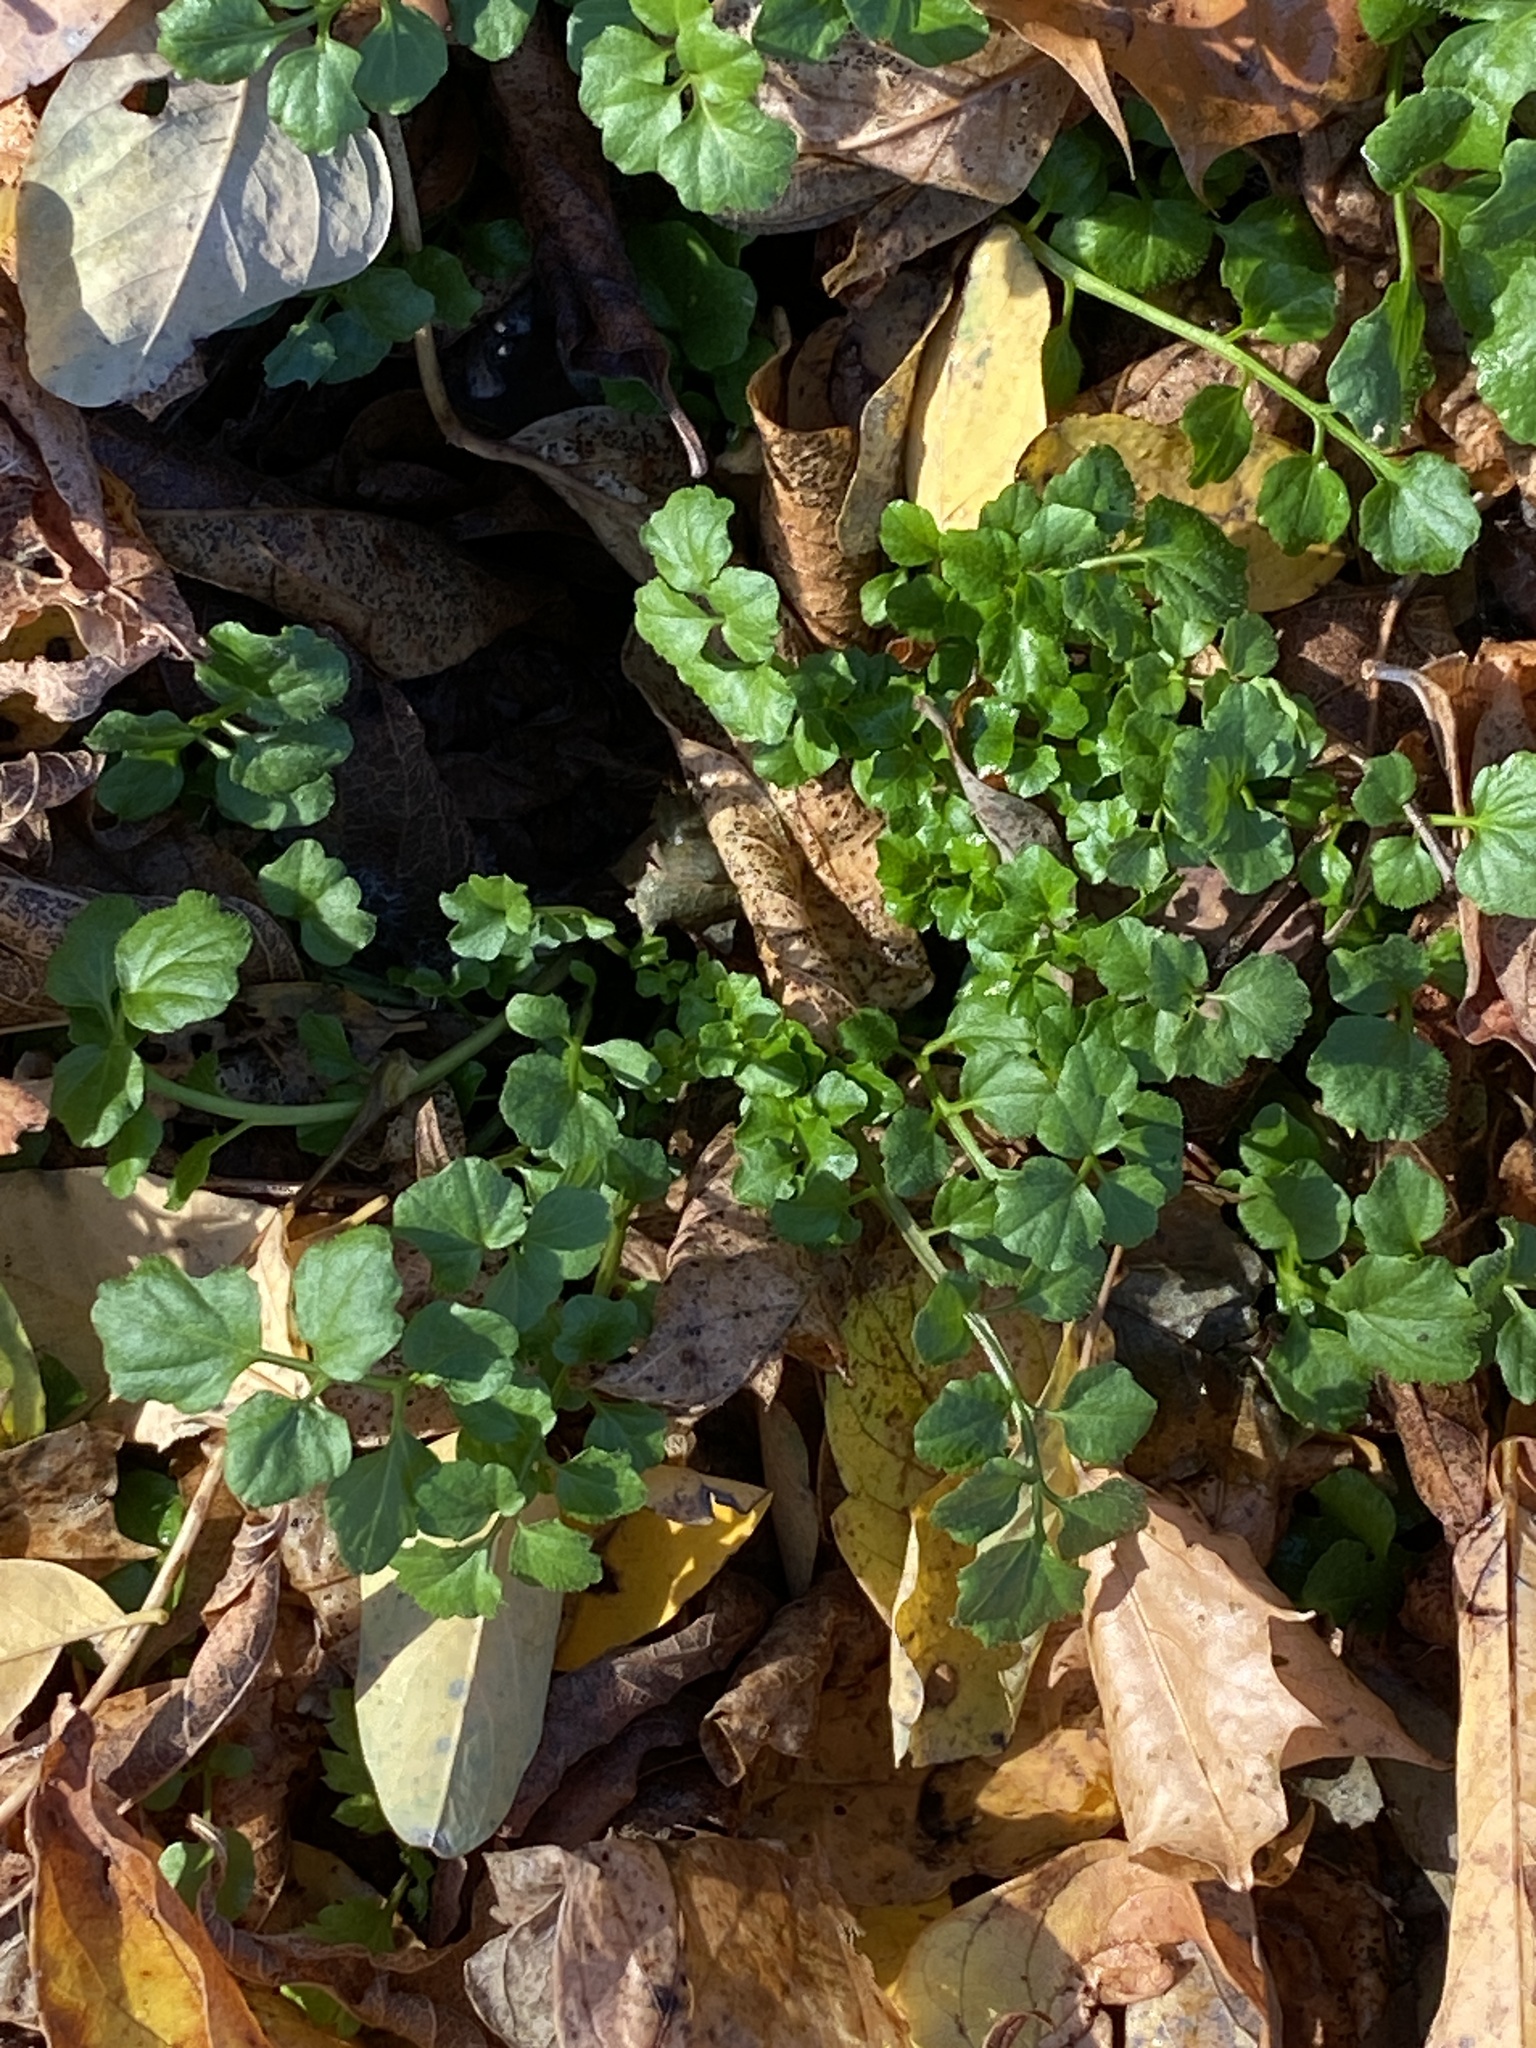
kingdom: Plantae
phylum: Tracheophyta
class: Magnoliopsida
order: Brassicales
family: Brassicaceae
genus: Cardamine
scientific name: Cardamine hirsuta
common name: Hairy bittercress
